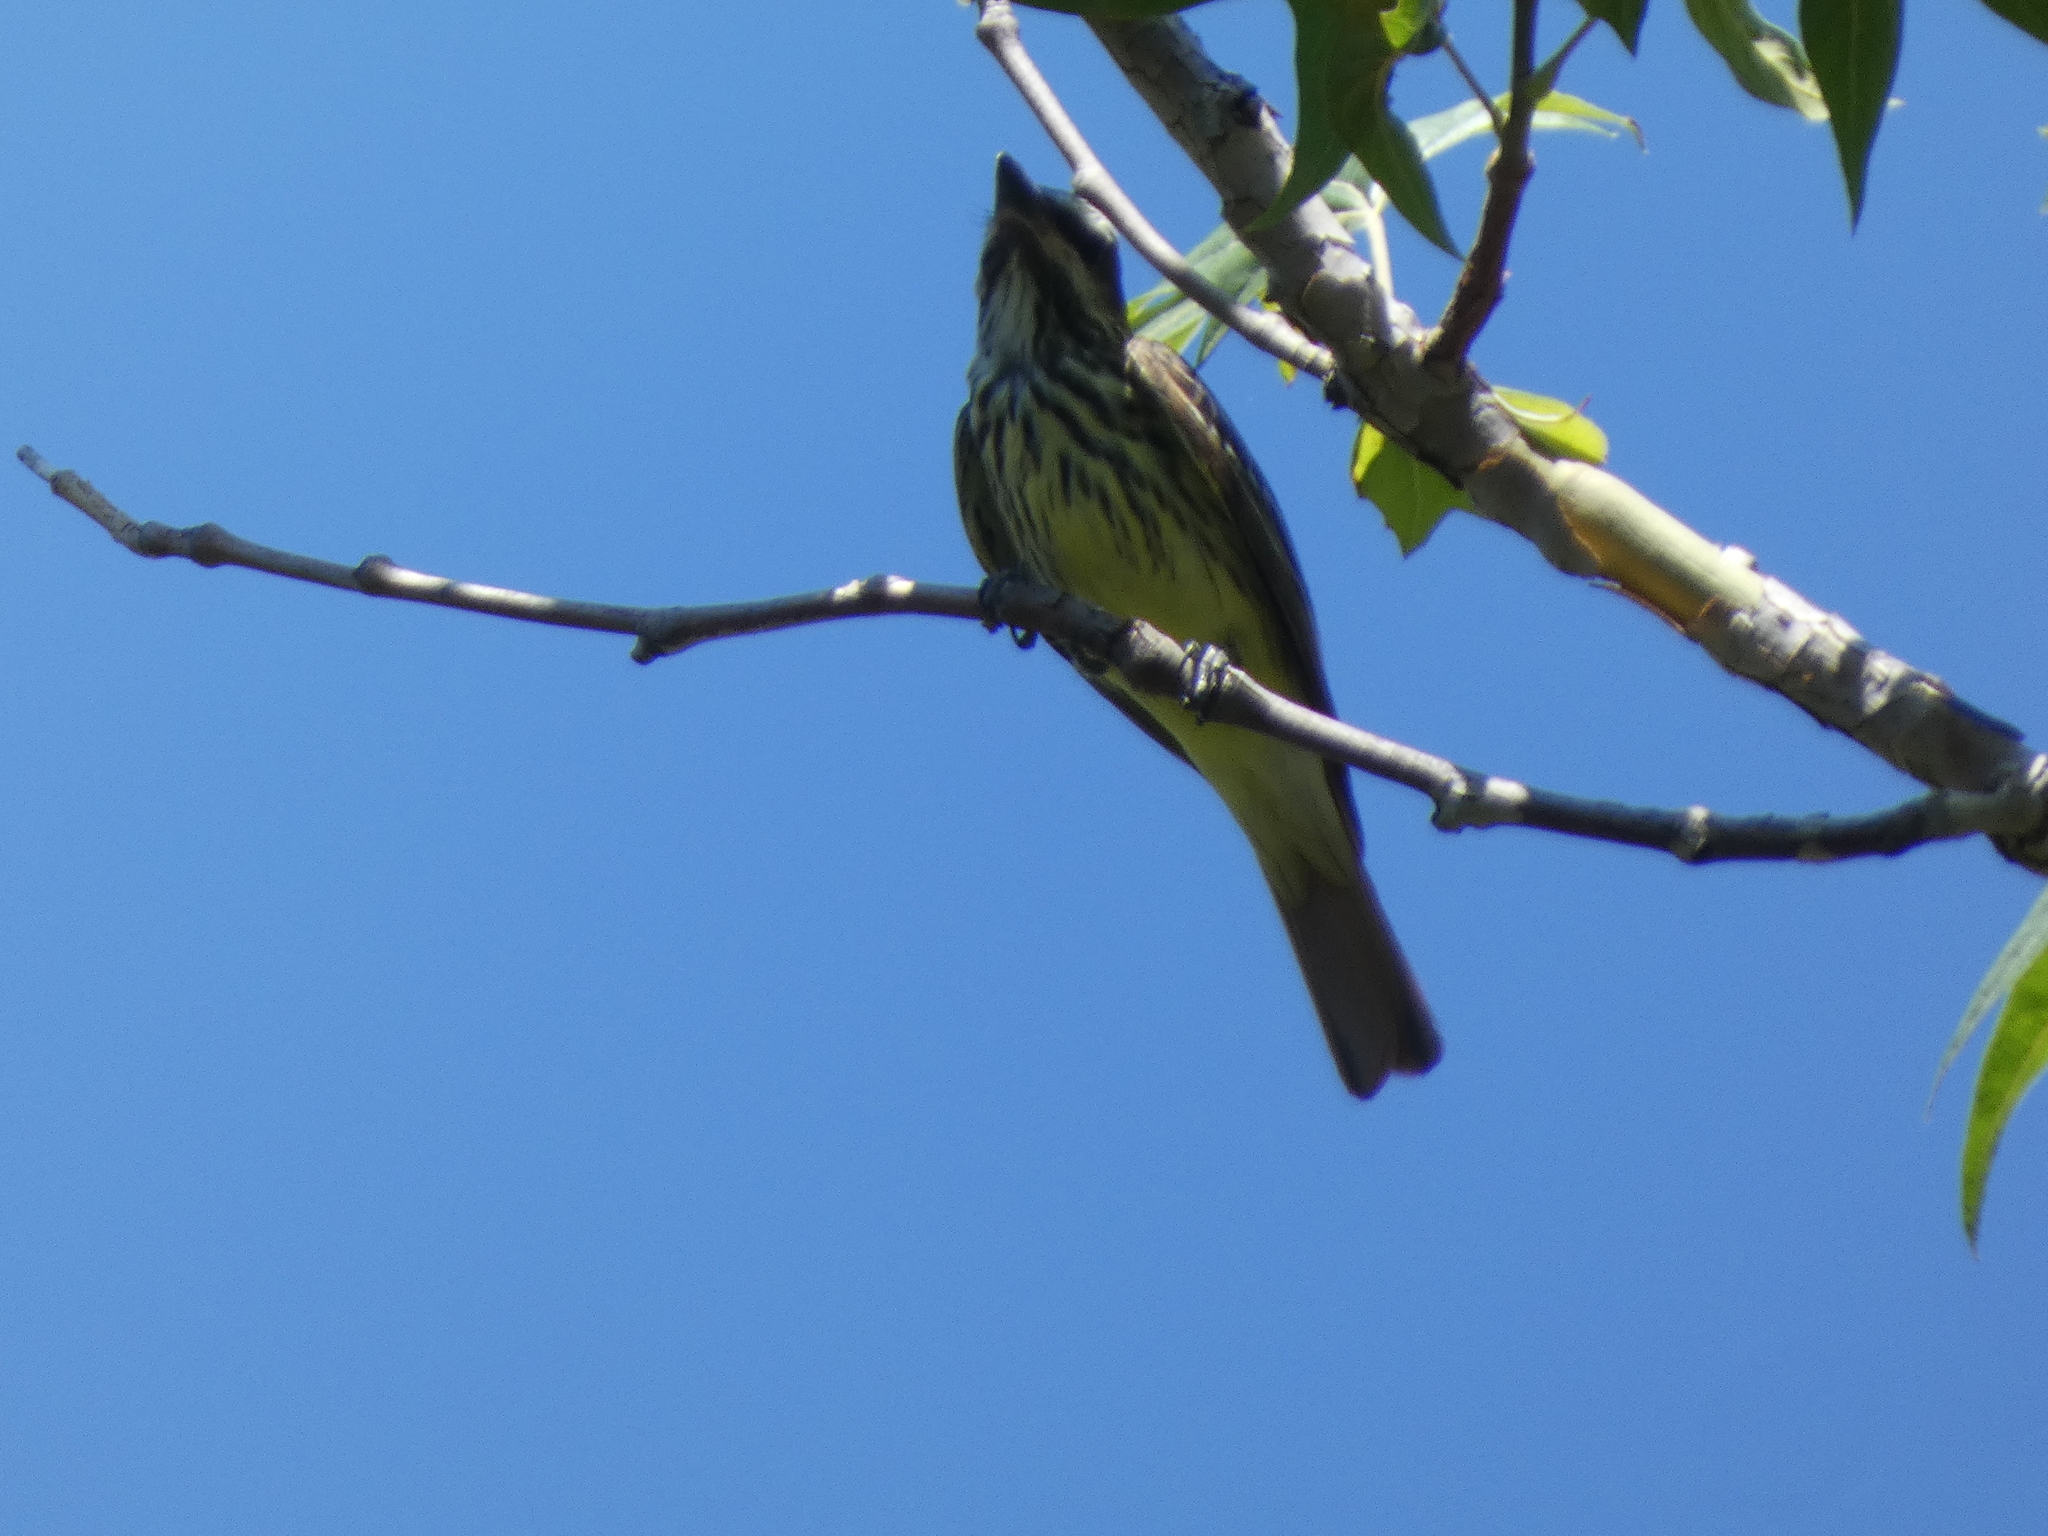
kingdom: Animalia
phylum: Chordata
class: Aves
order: Passeriformes
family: Tyrannidae
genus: Myiodynastes
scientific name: Myiodynastes luteiventris
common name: Sulphur-bellied flycatcher
